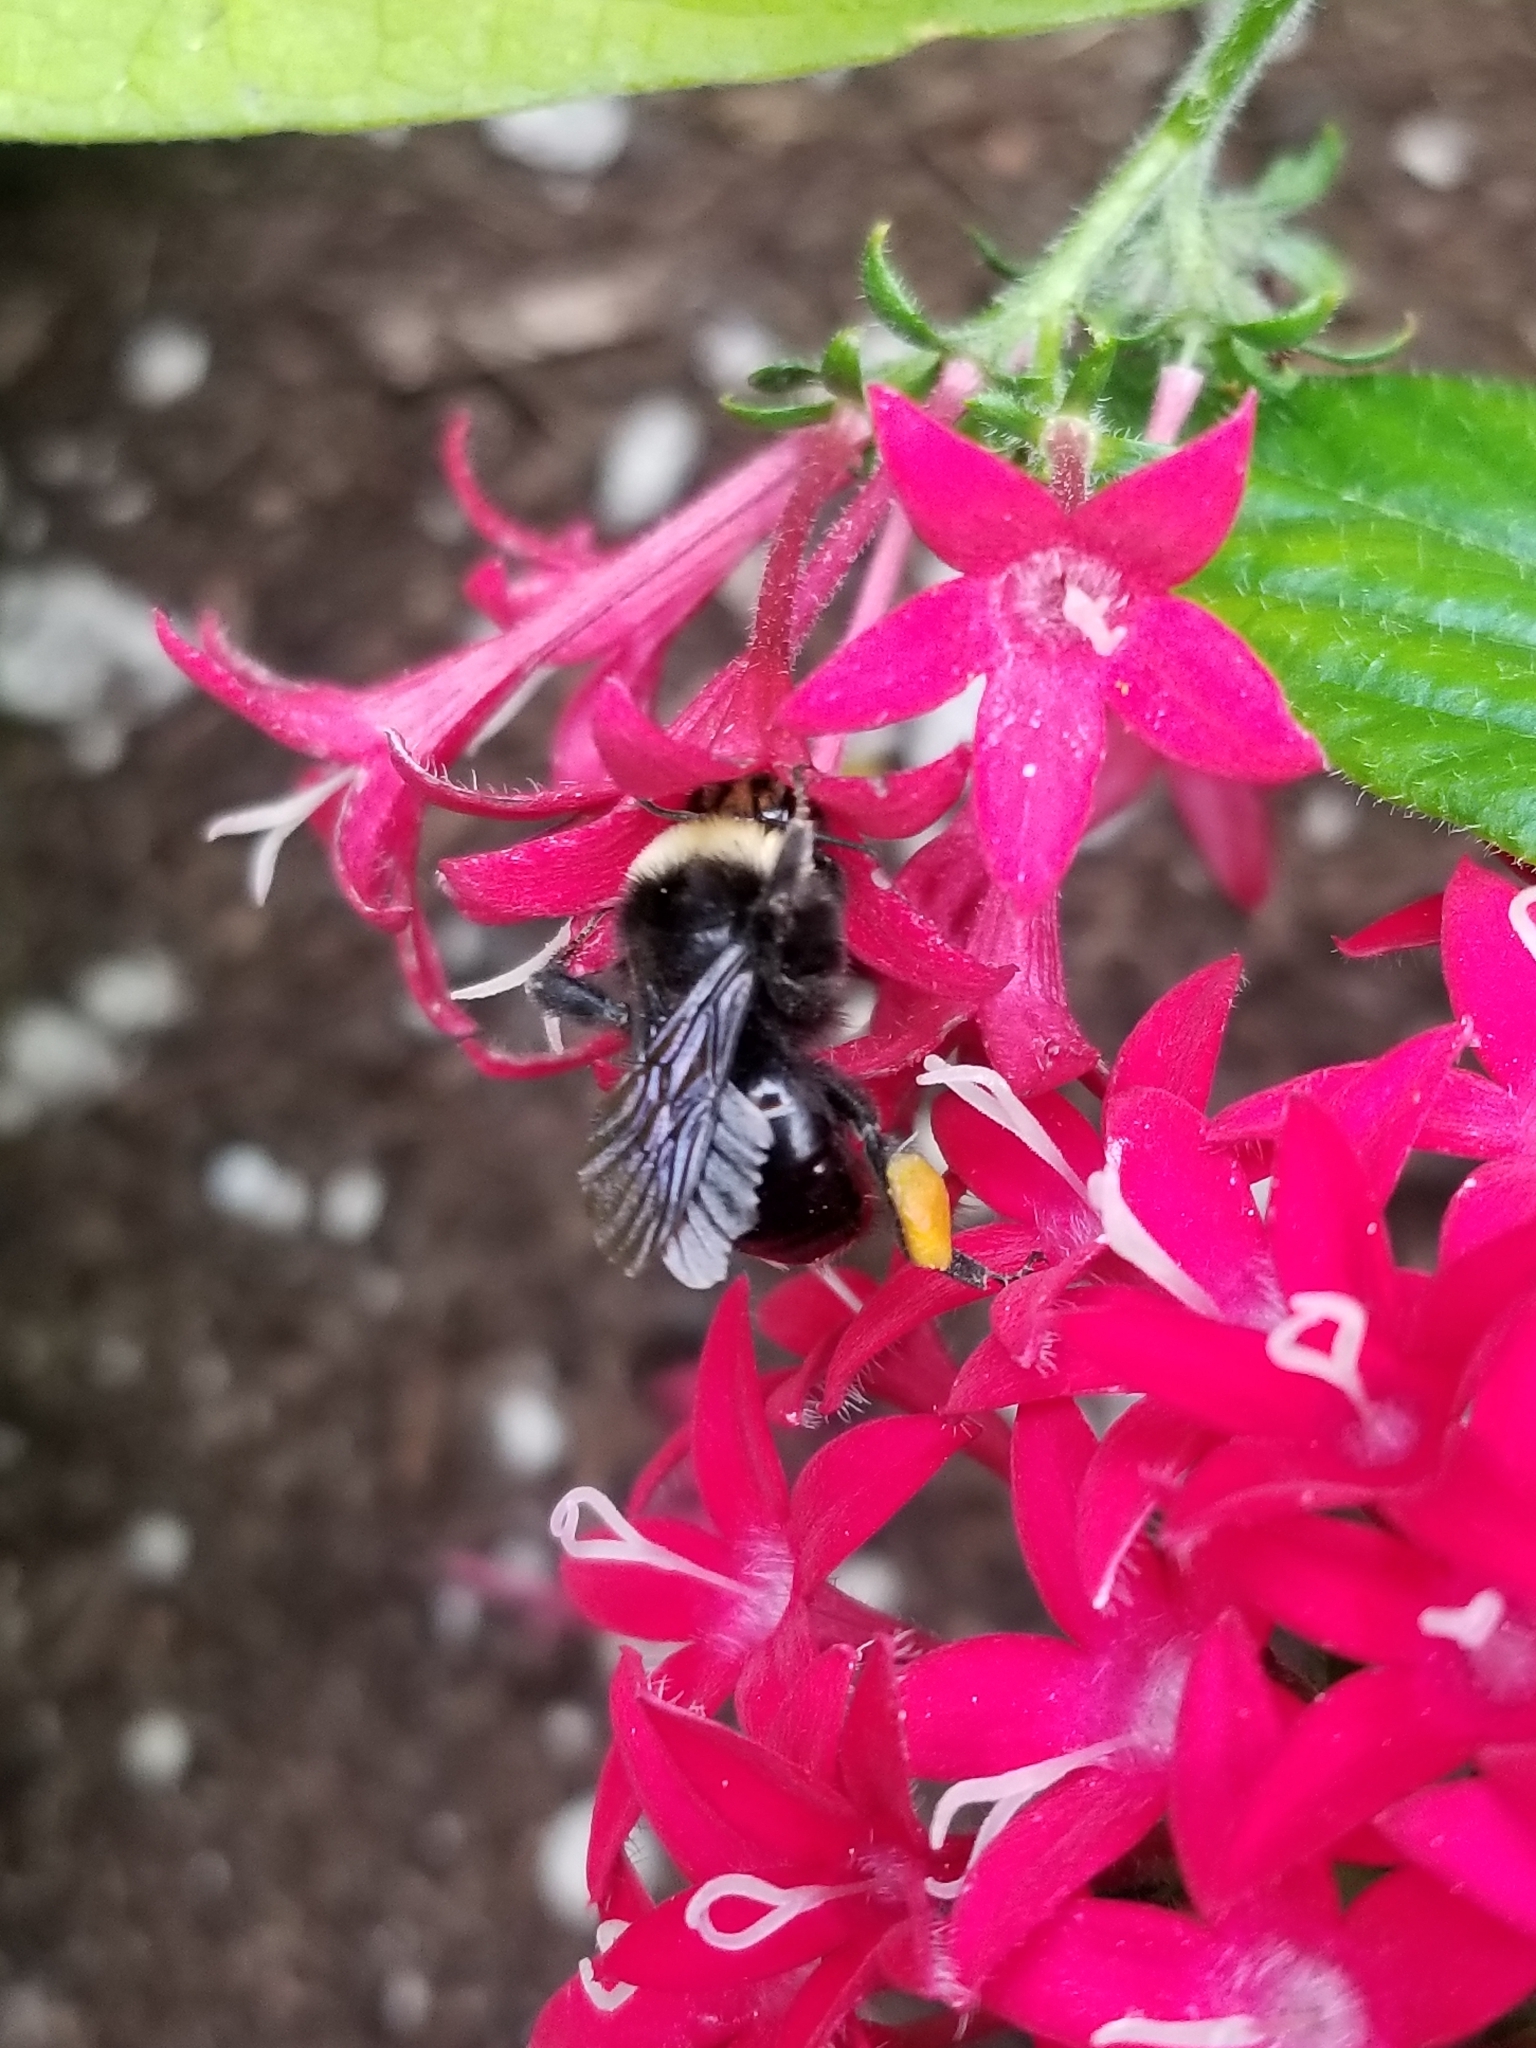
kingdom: Animalia
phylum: Arthropoda
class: Insecta
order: Hymenoptera
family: Apidae
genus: Bombus
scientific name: Bombus vosnesenskii
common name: Vosnesensky bumble bee
